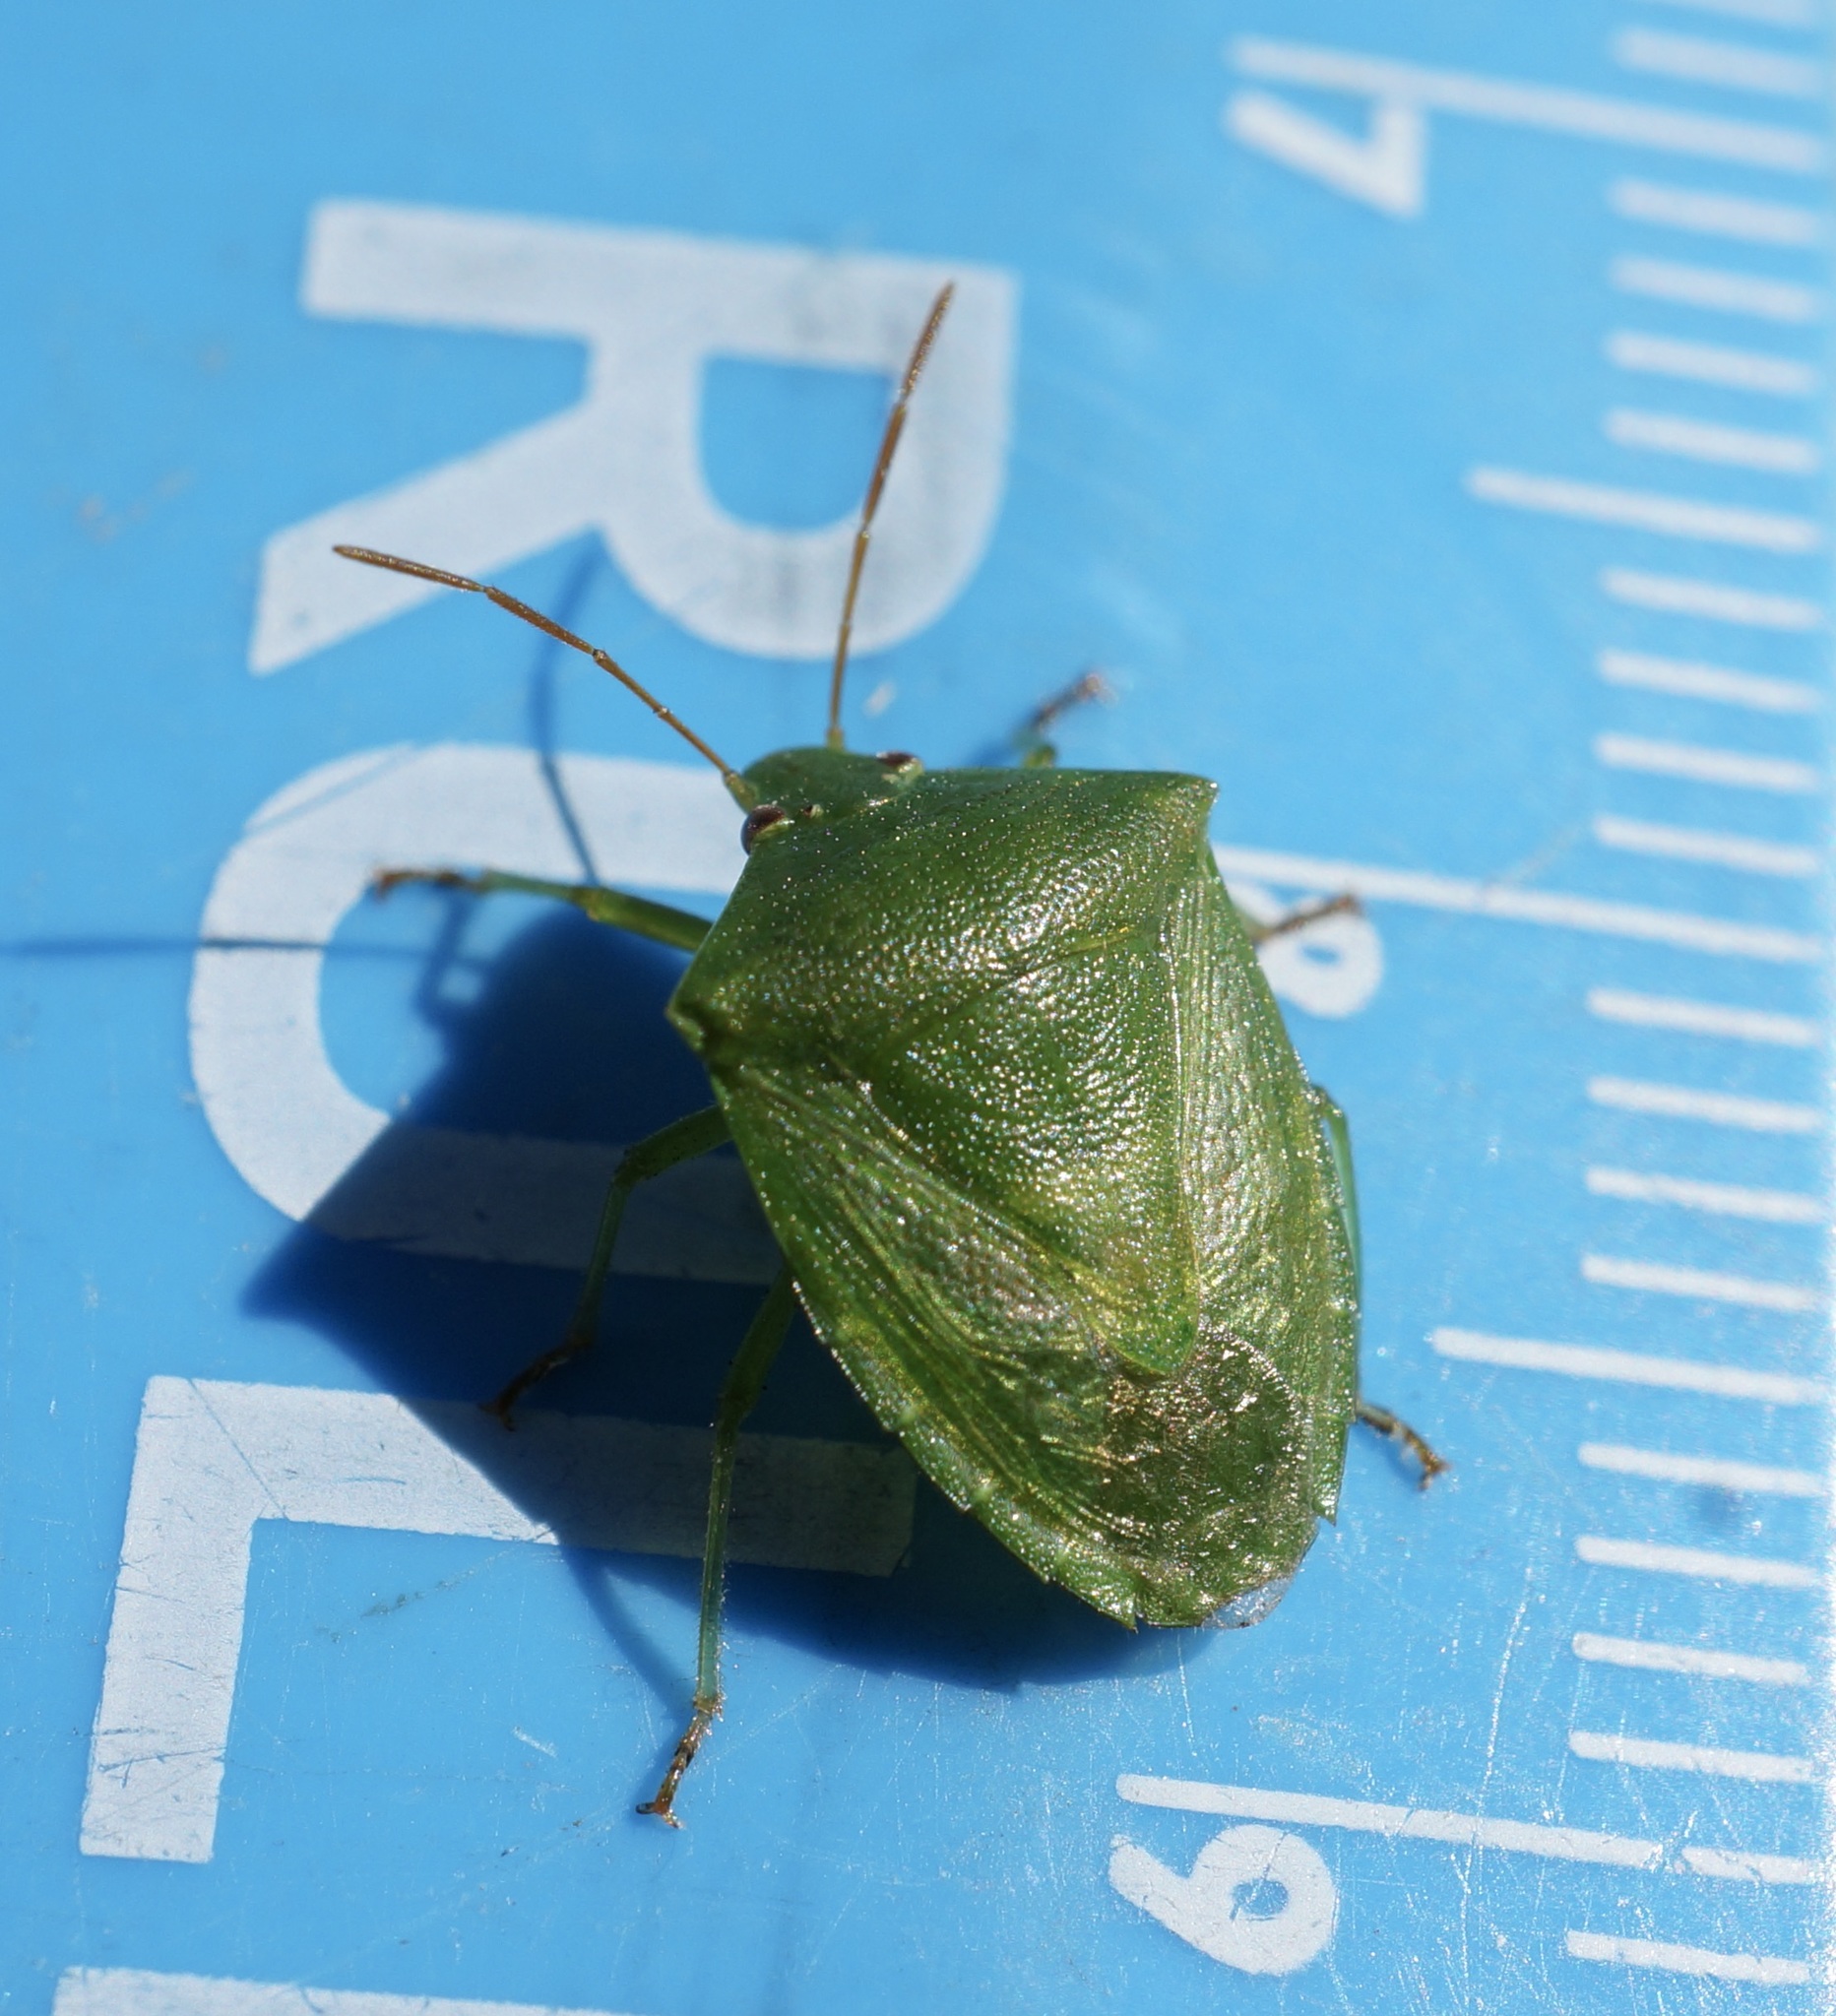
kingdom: Animalia
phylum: Arthropoda
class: Insecta
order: Hemiptera
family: Pentatomidae
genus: Cuspicona
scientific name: Cuspicona simplex
